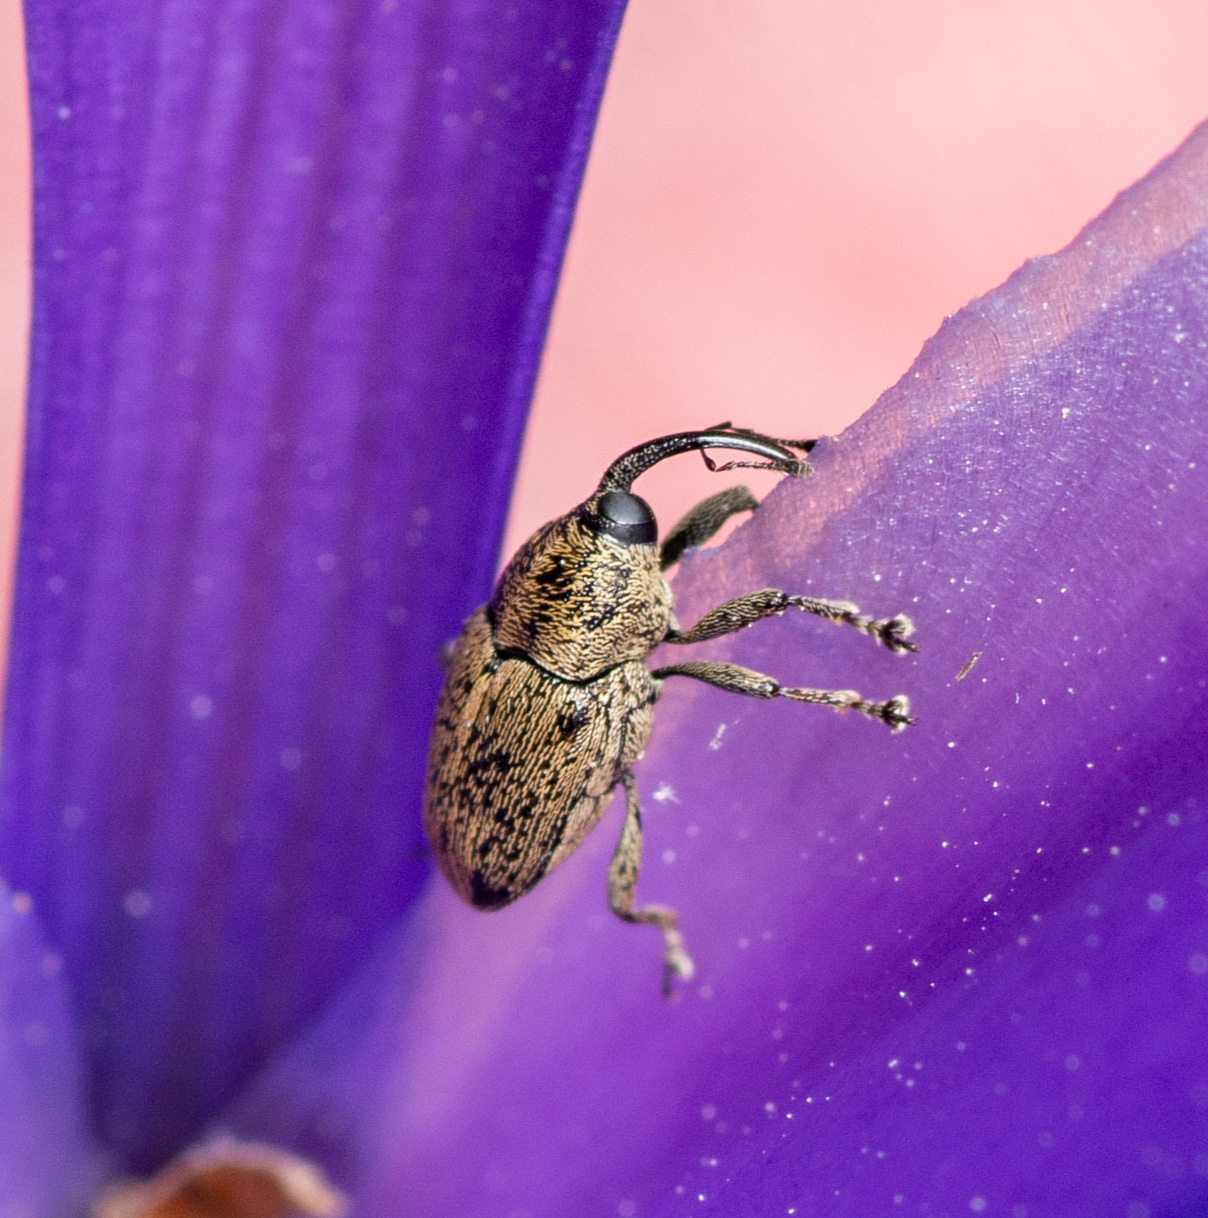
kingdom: Animalia
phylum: Arthropoda
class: Insecta
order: Coleoptera
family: Curculionidae
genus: Linogeraeus
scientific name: Linogeraeus neglectus
